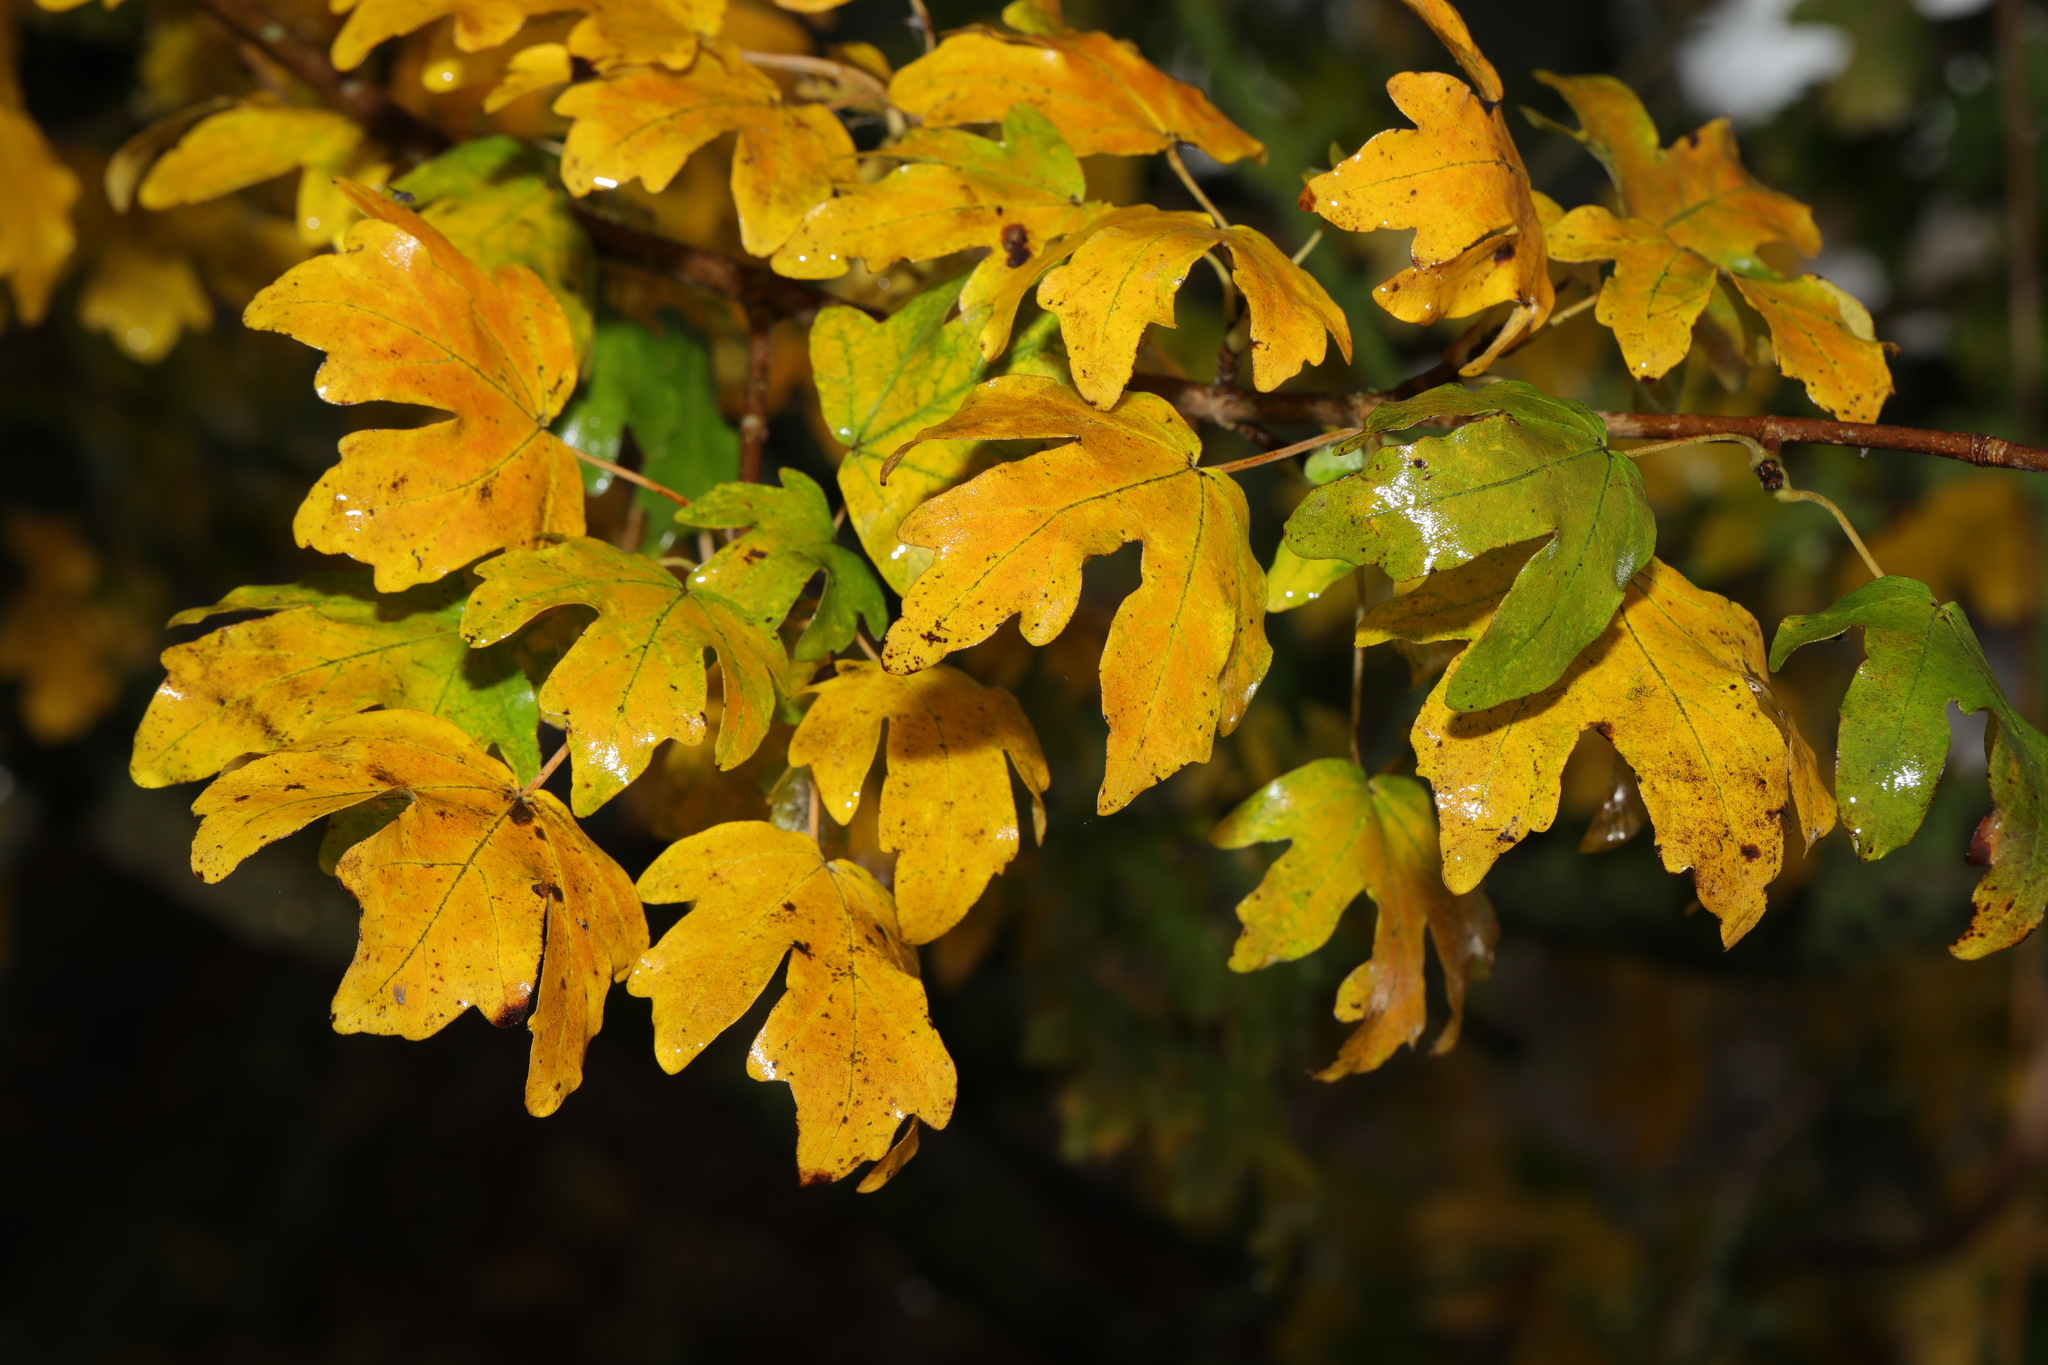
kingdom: Plantae
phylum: Tracheophyta
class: Magnoliopsida
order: Sapindales
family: Sapindaceae
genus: Acer
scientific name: Acer campestre
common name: Field maple
